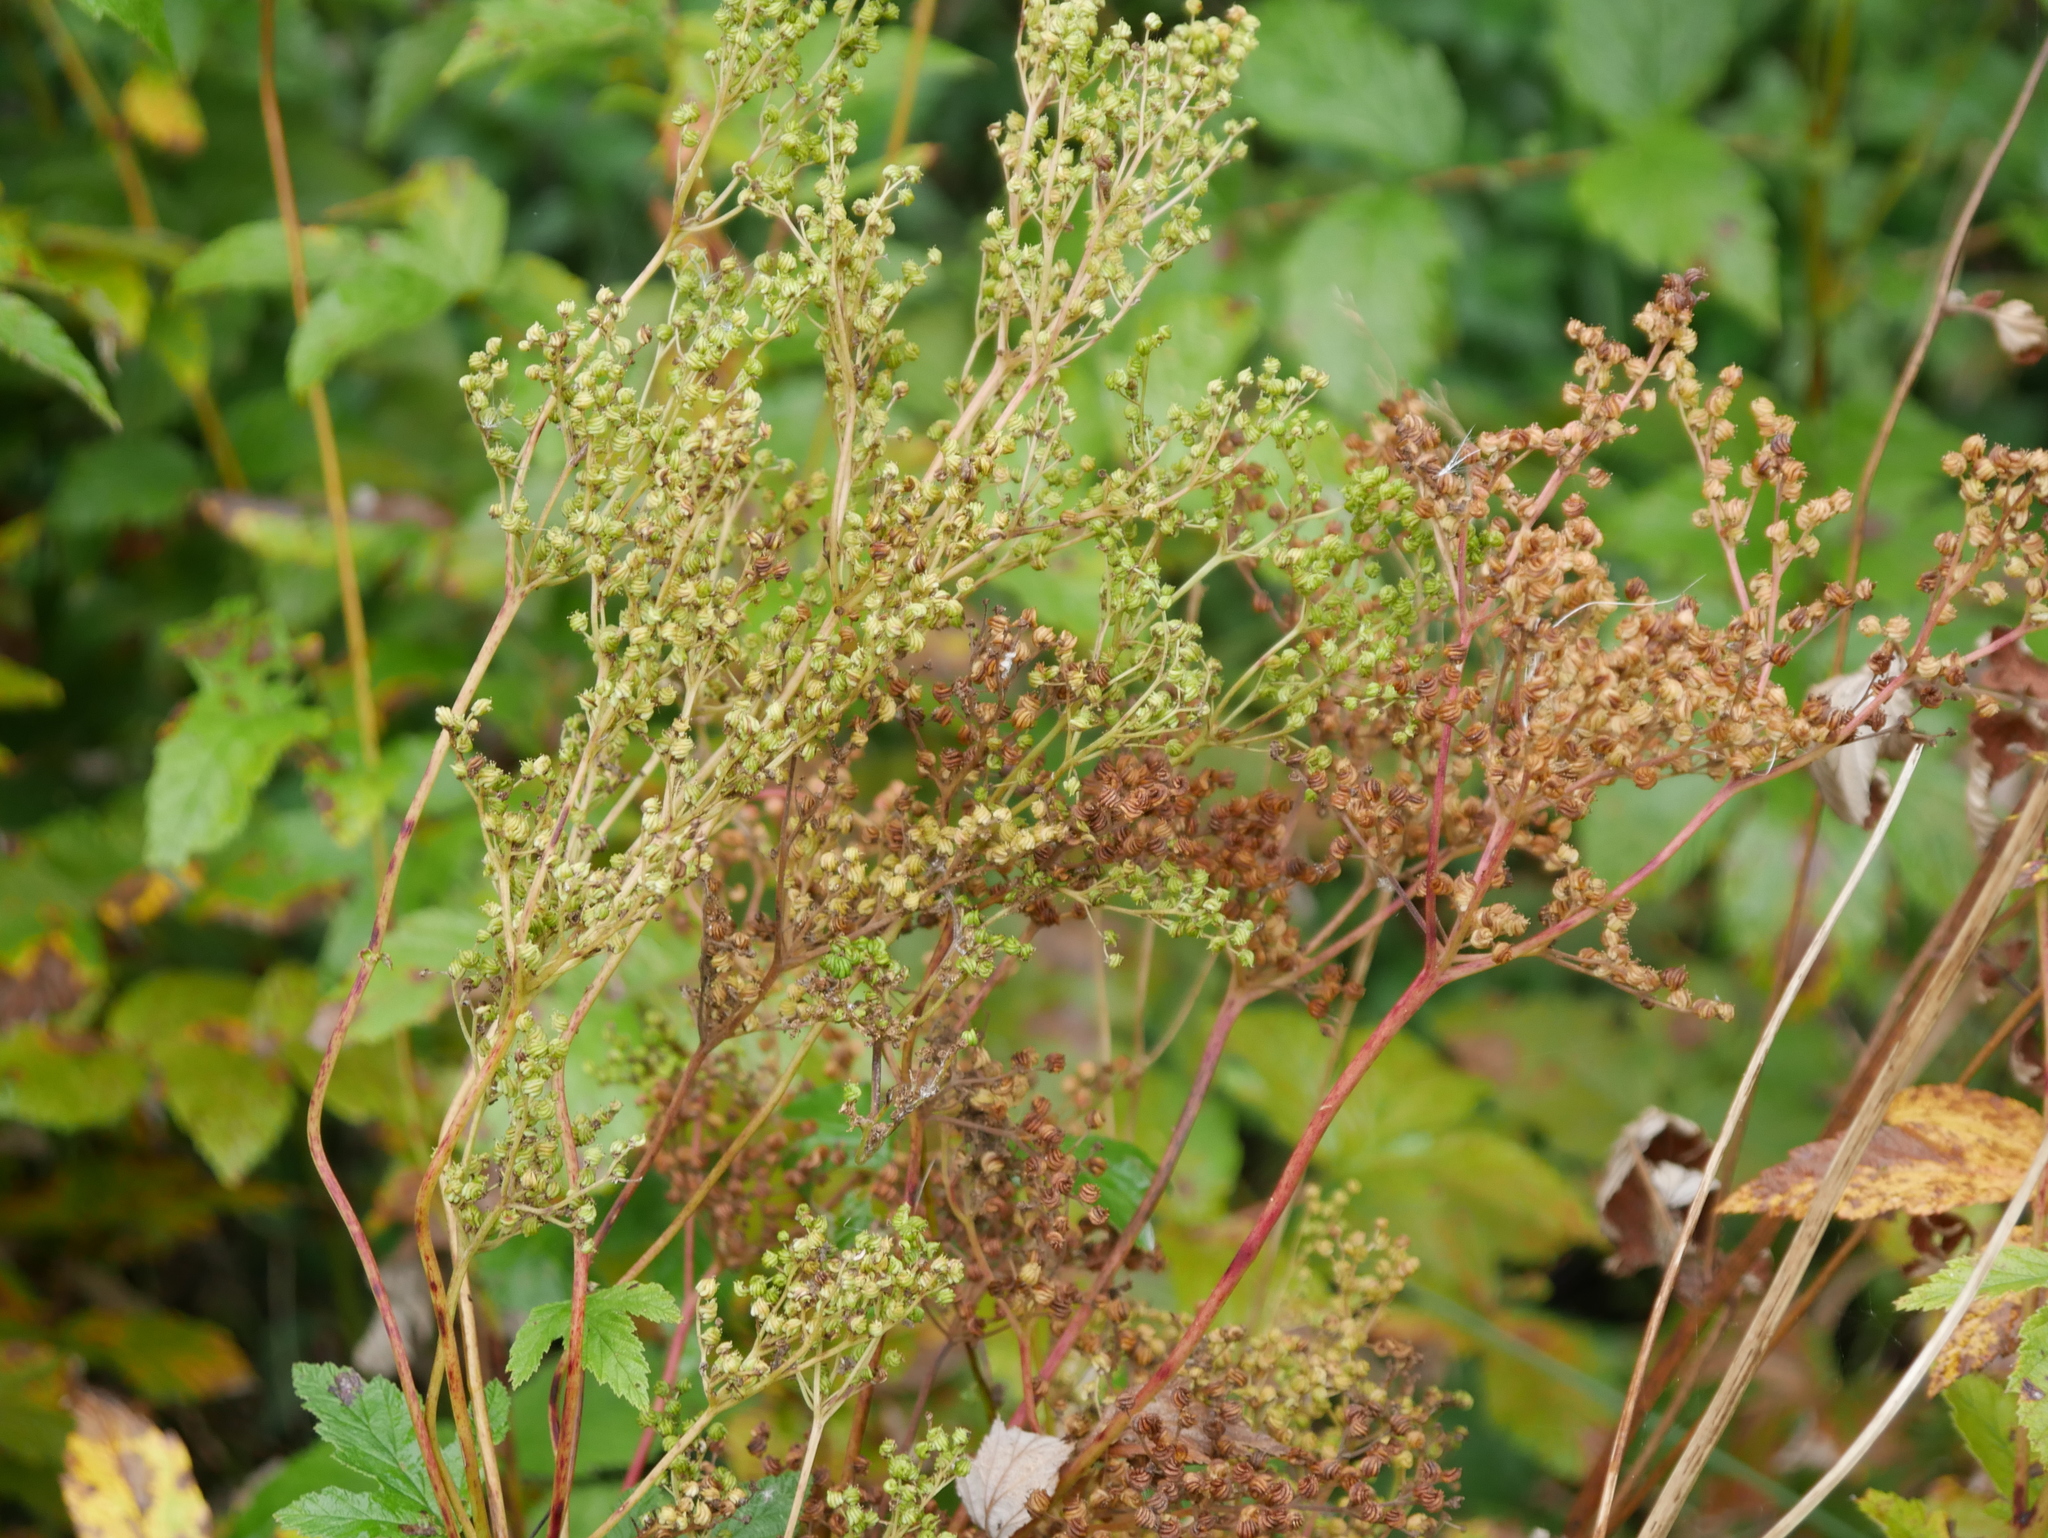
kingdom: Plantae
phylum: Tracheophyta
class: Magnoliopsida
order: Rosales
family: Rosaceae
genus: Filipendula
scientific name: Filipendula ulmaria
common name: Meadowsweet
